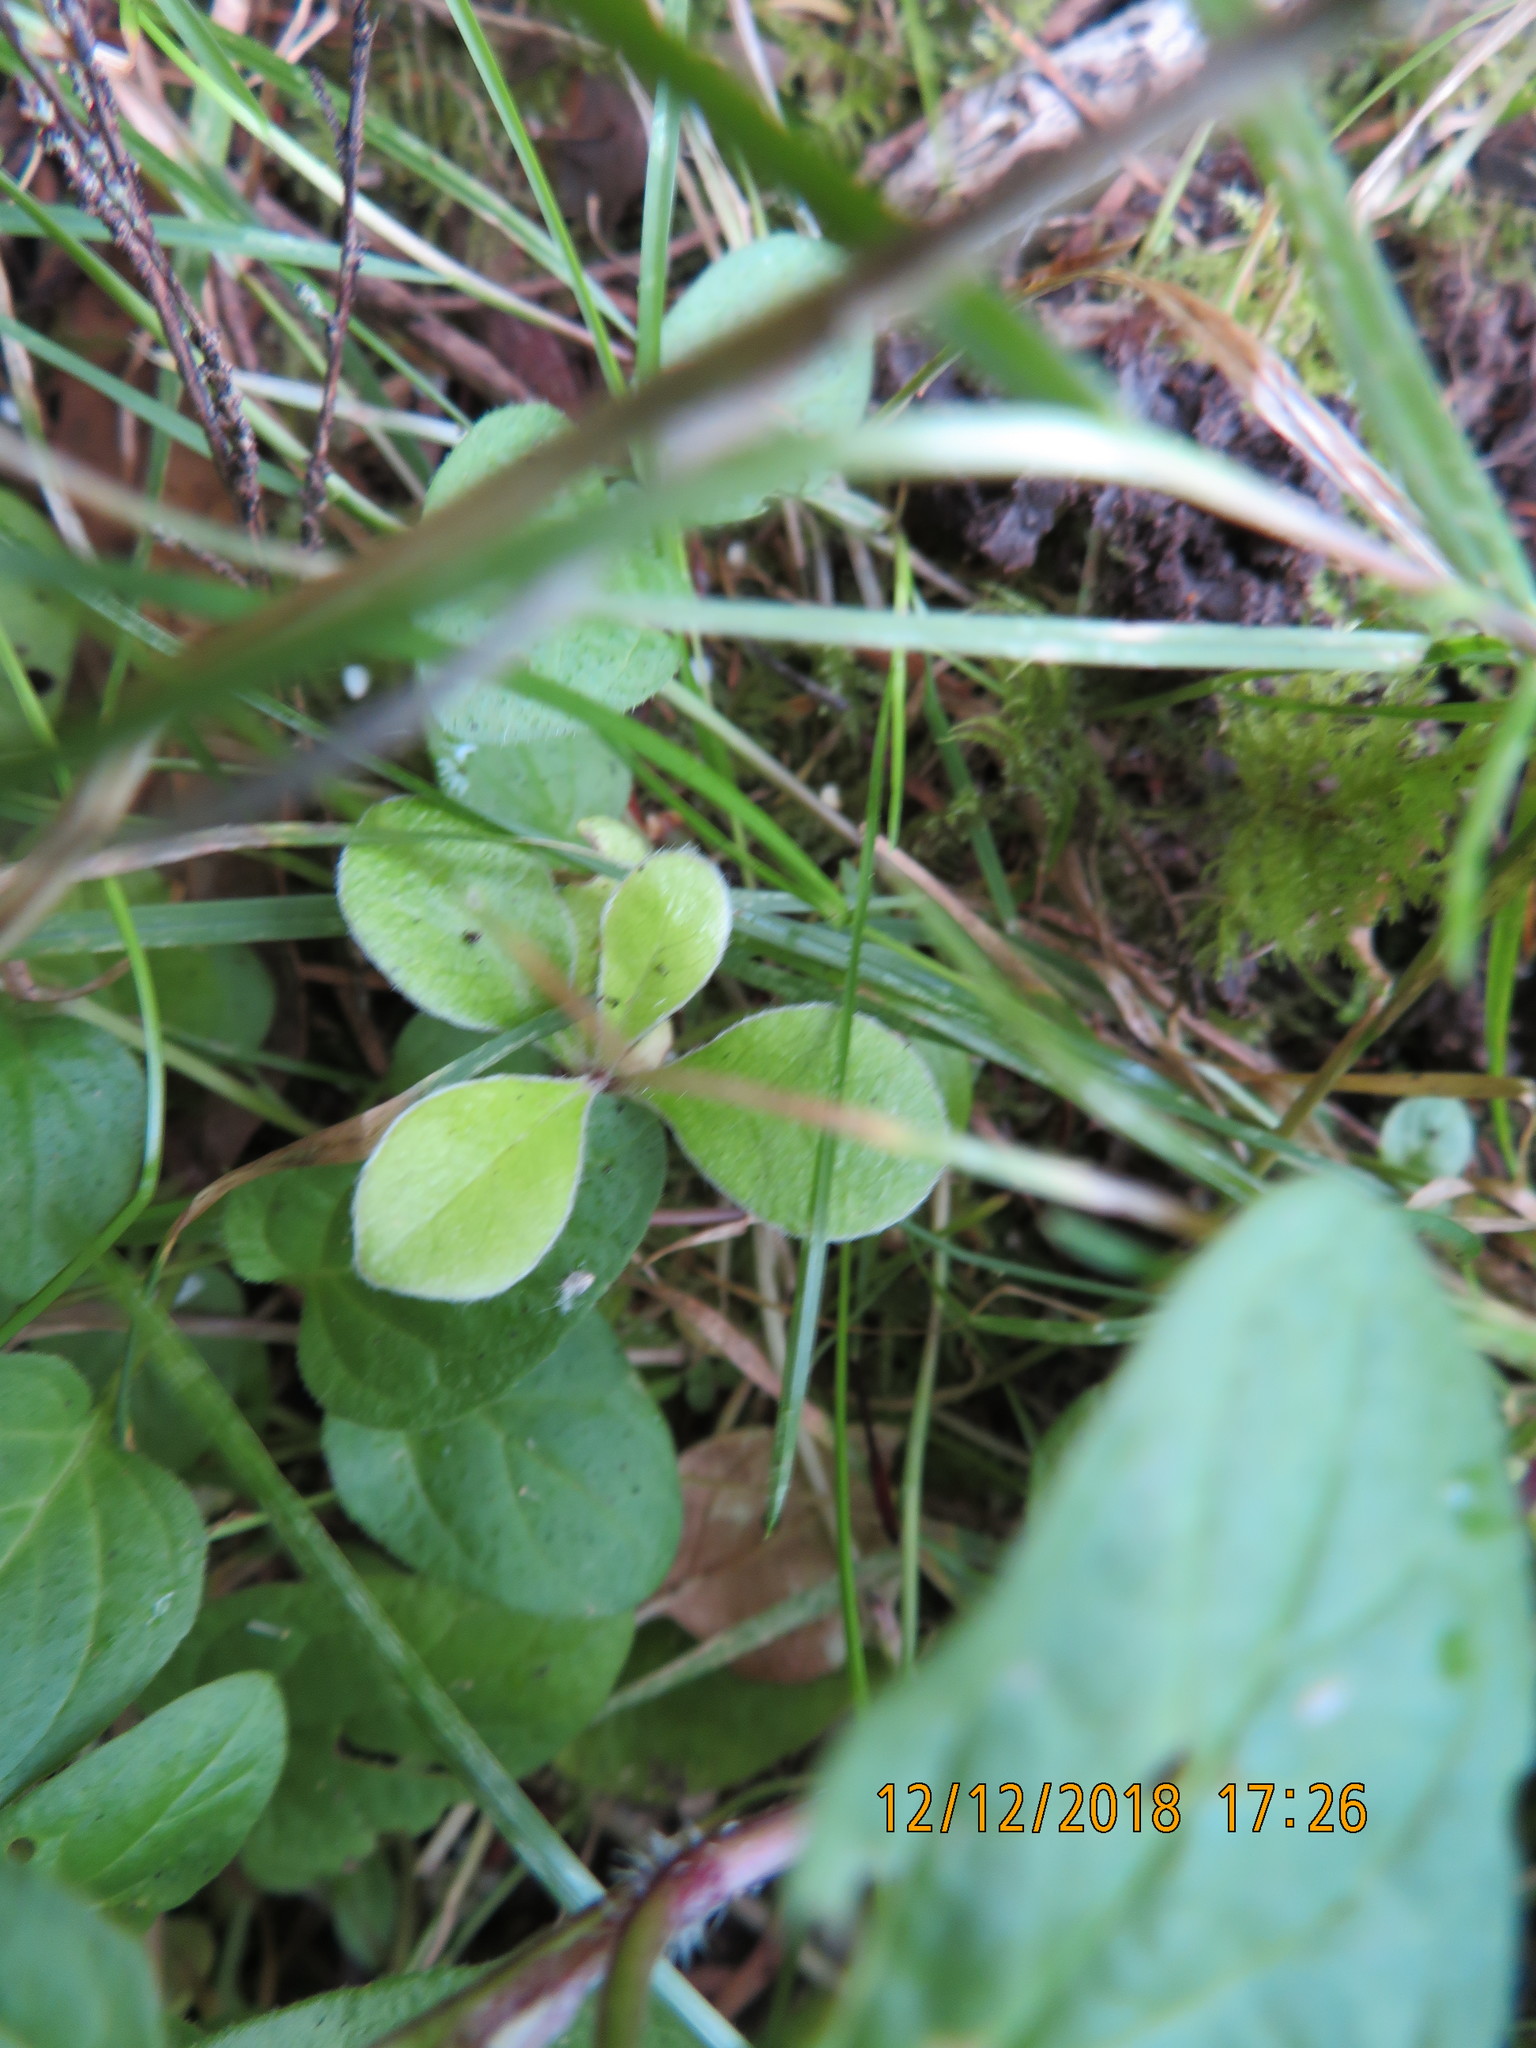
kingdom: Plantae
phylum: Tracheophyta
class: Magnoliopsida
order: Apiales
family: Pittosporaceae
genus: Pittosporum
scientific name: Pittosporum crassifolium
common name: Karo
